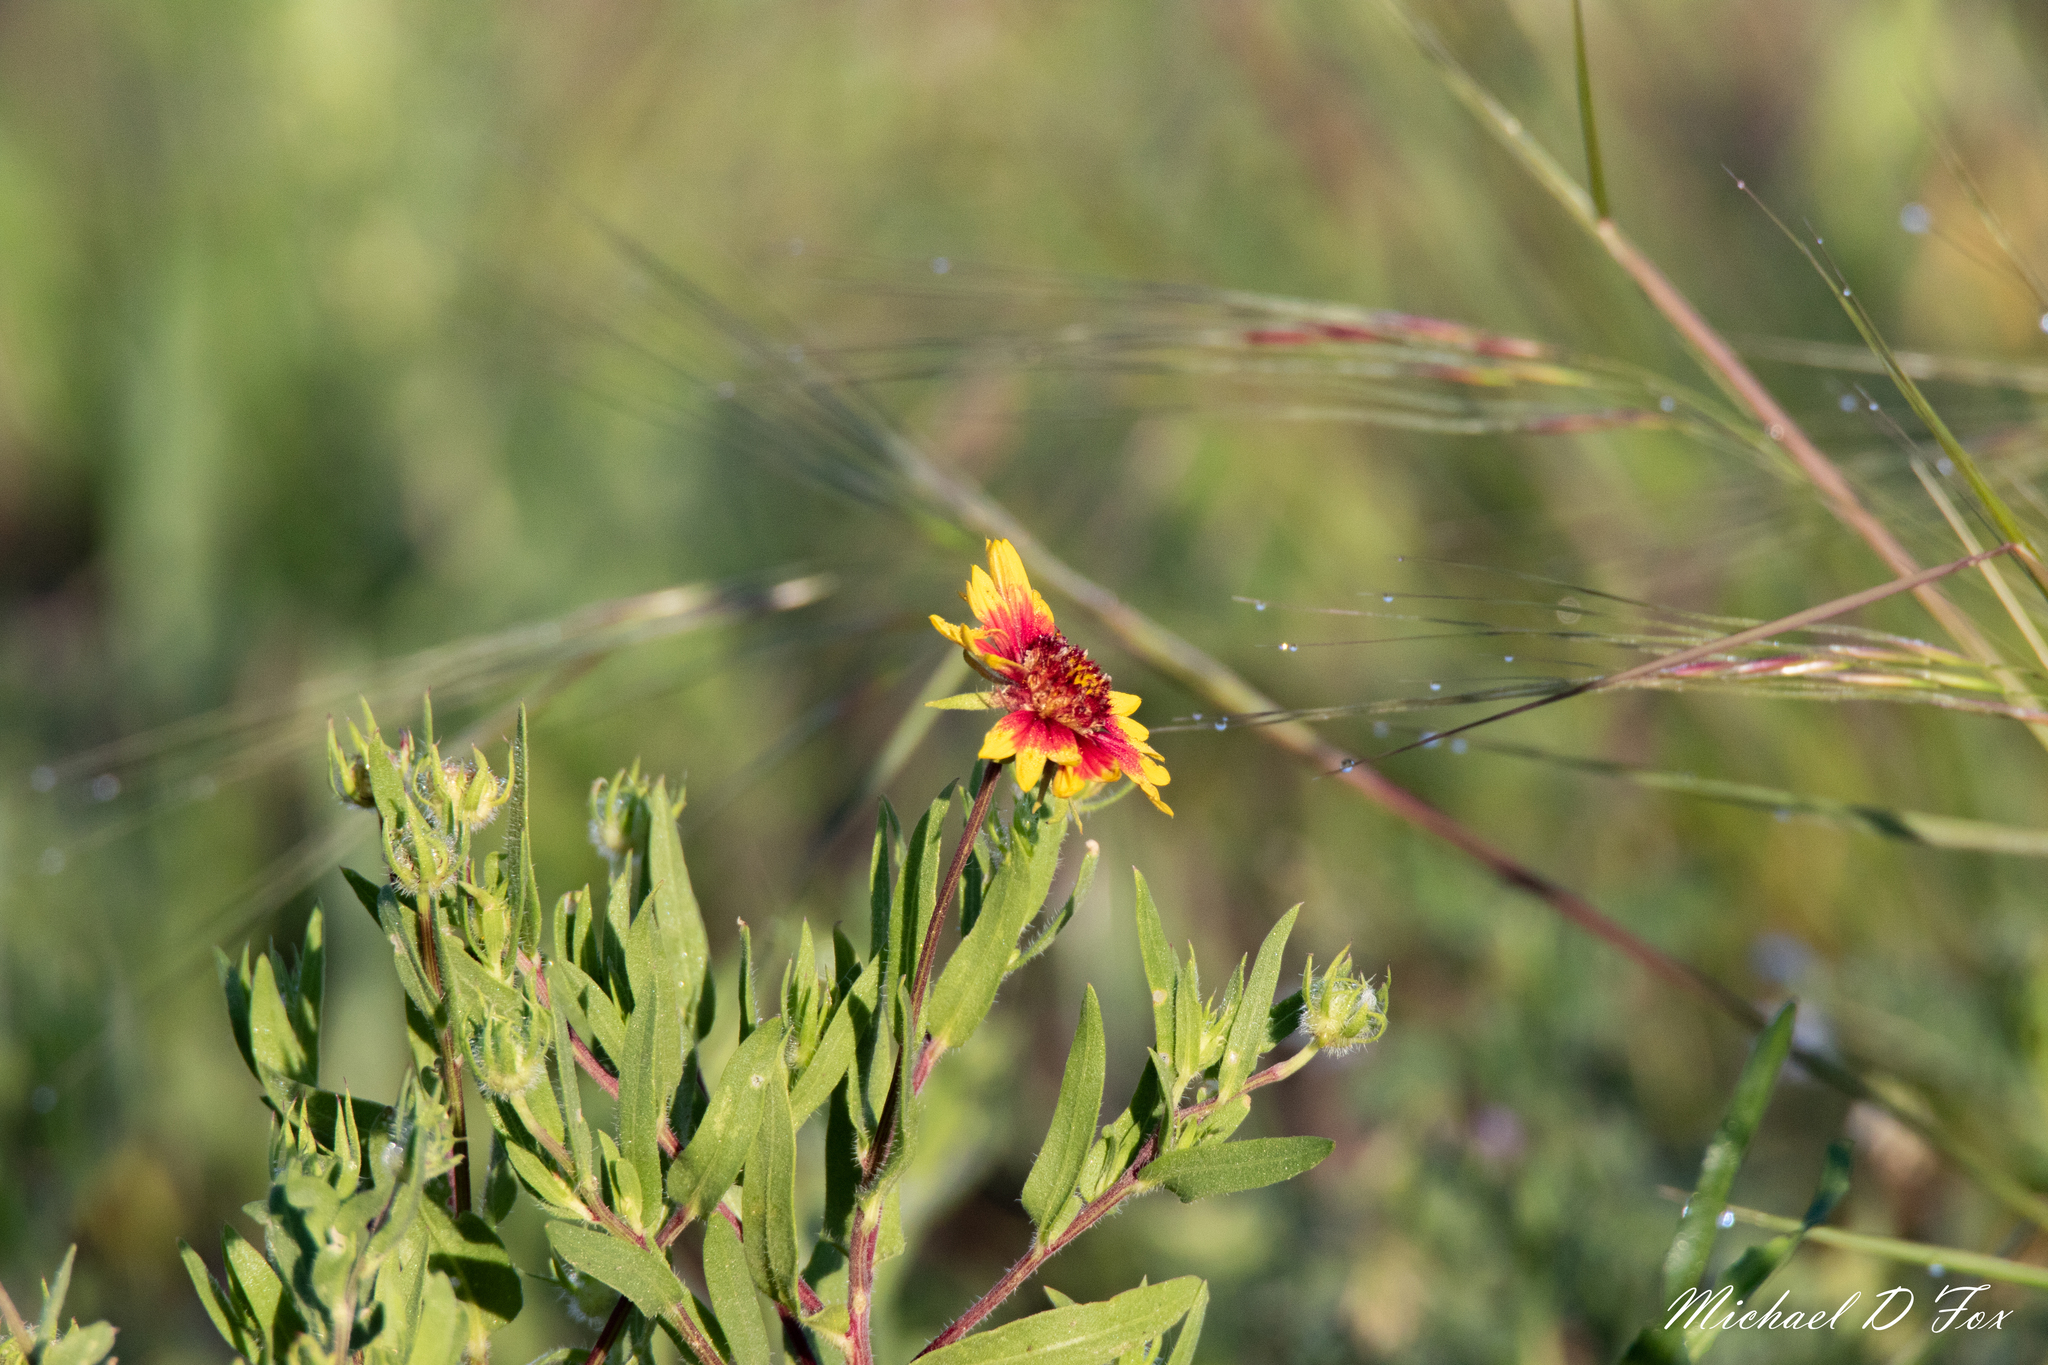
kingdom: Plantae
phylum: Tracheophyta
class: Magnoliopsida
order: Asterales
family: Asteraceae
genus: Gaillardia
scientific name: Gaillardia pulchella
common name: Firewheel
